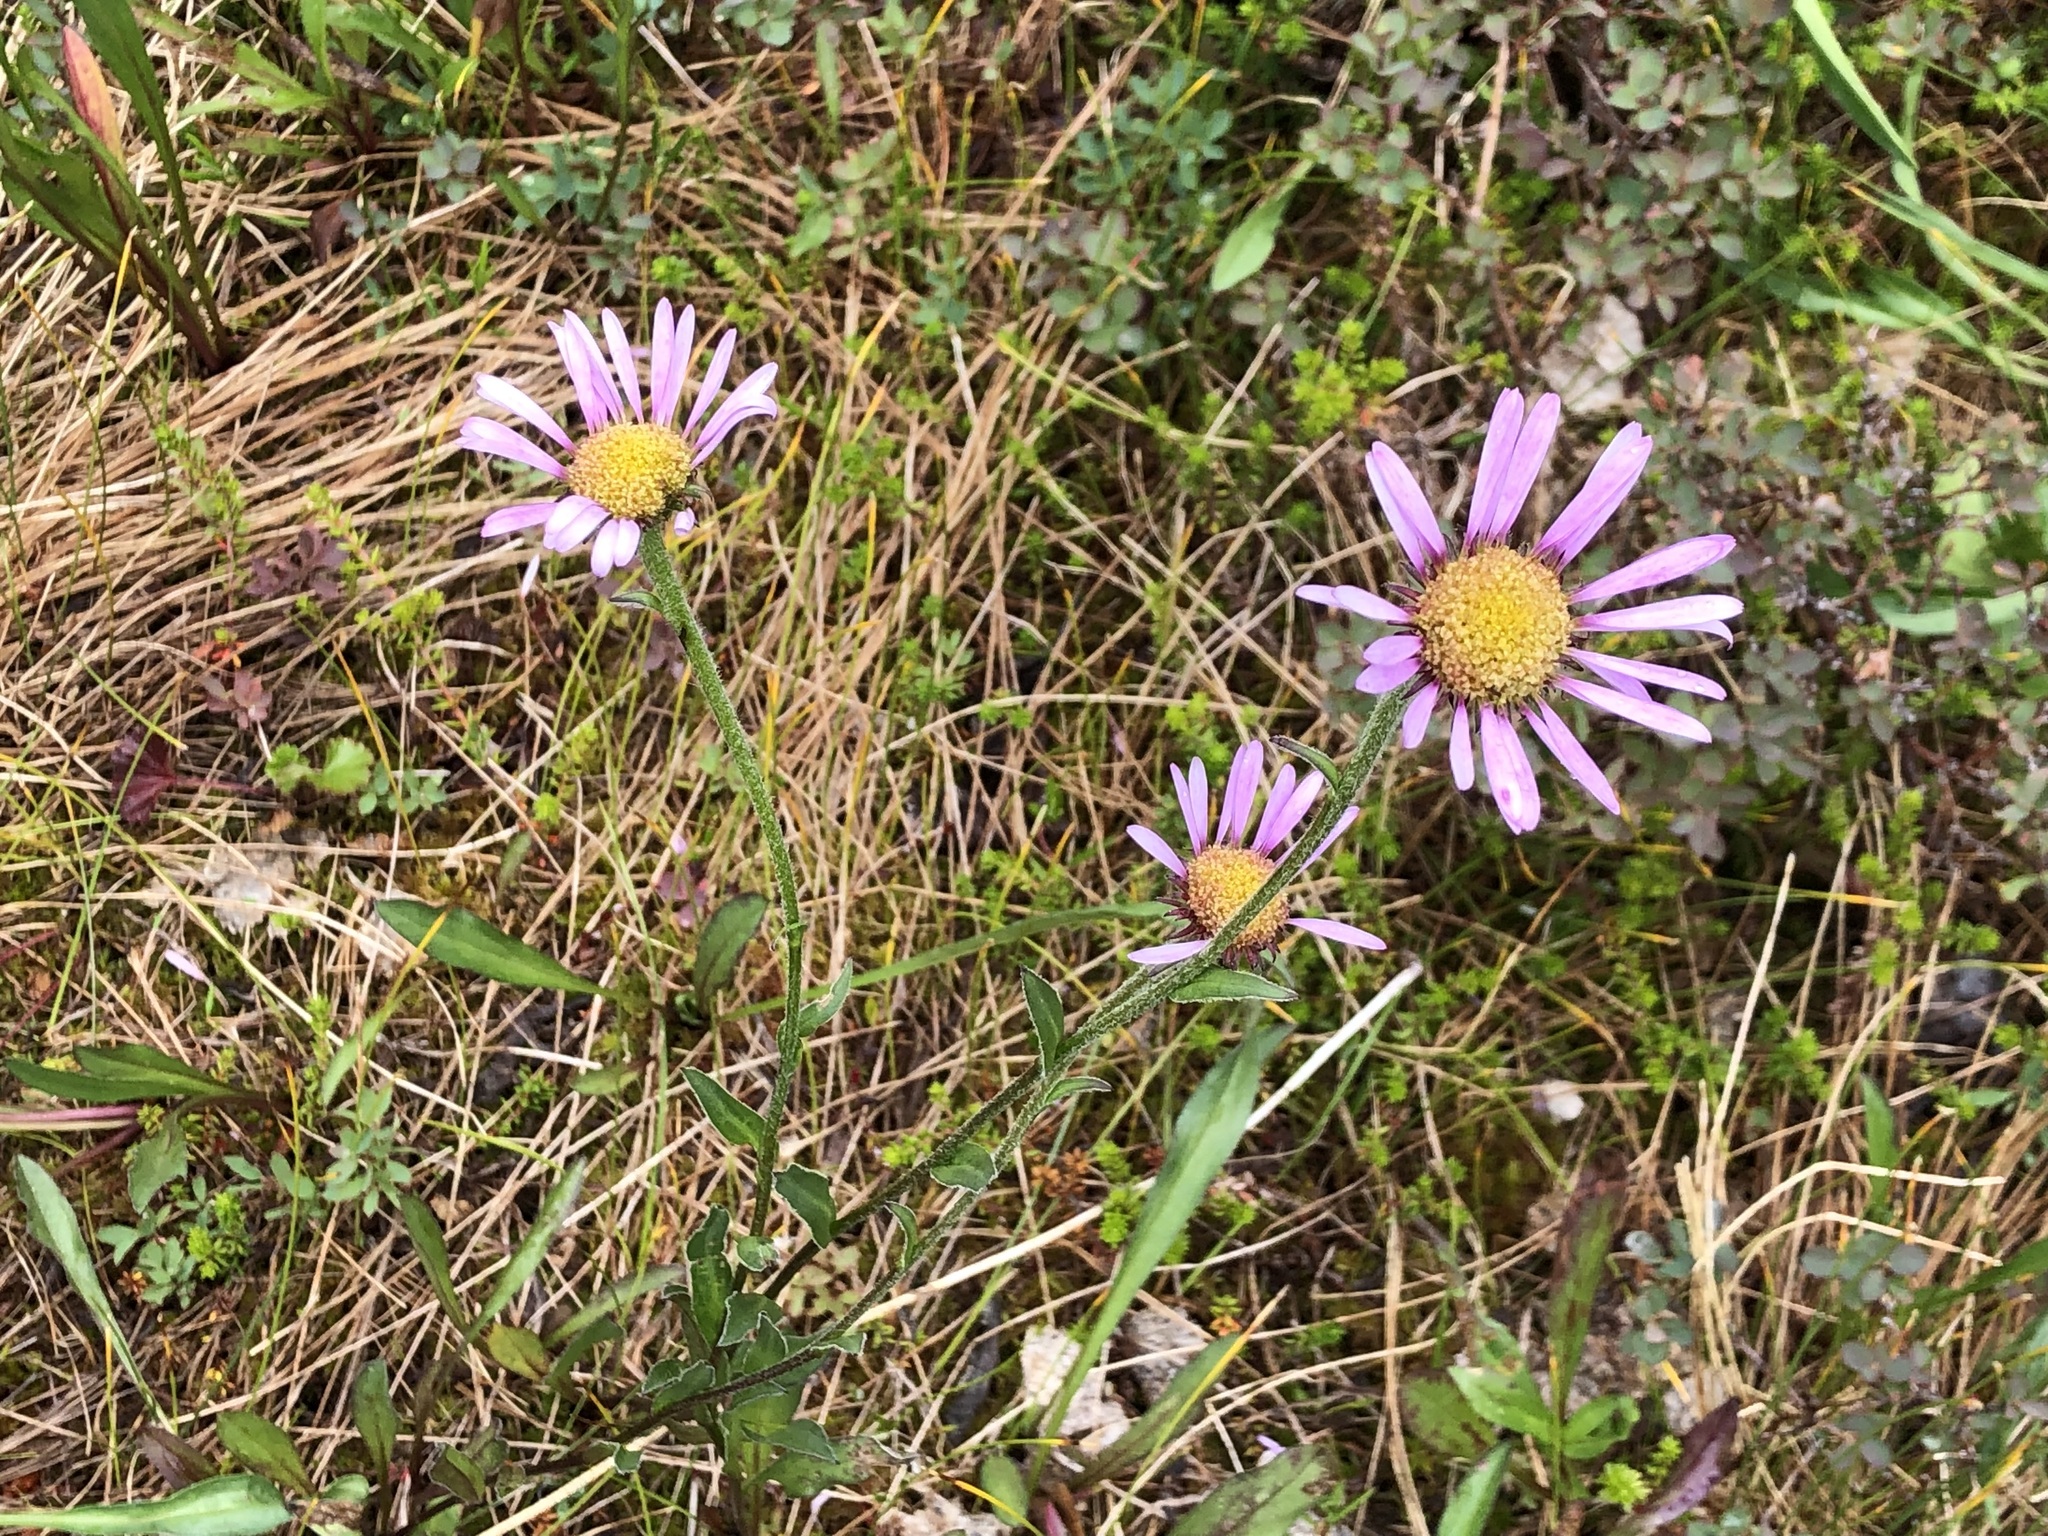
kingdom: Plantae
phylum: Tracheophyta
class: Magnoliopsida
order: Asterales
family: Asteraceae
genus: Erigeron
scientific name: Erigeron peregrinus
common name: Peregrine fleabane
